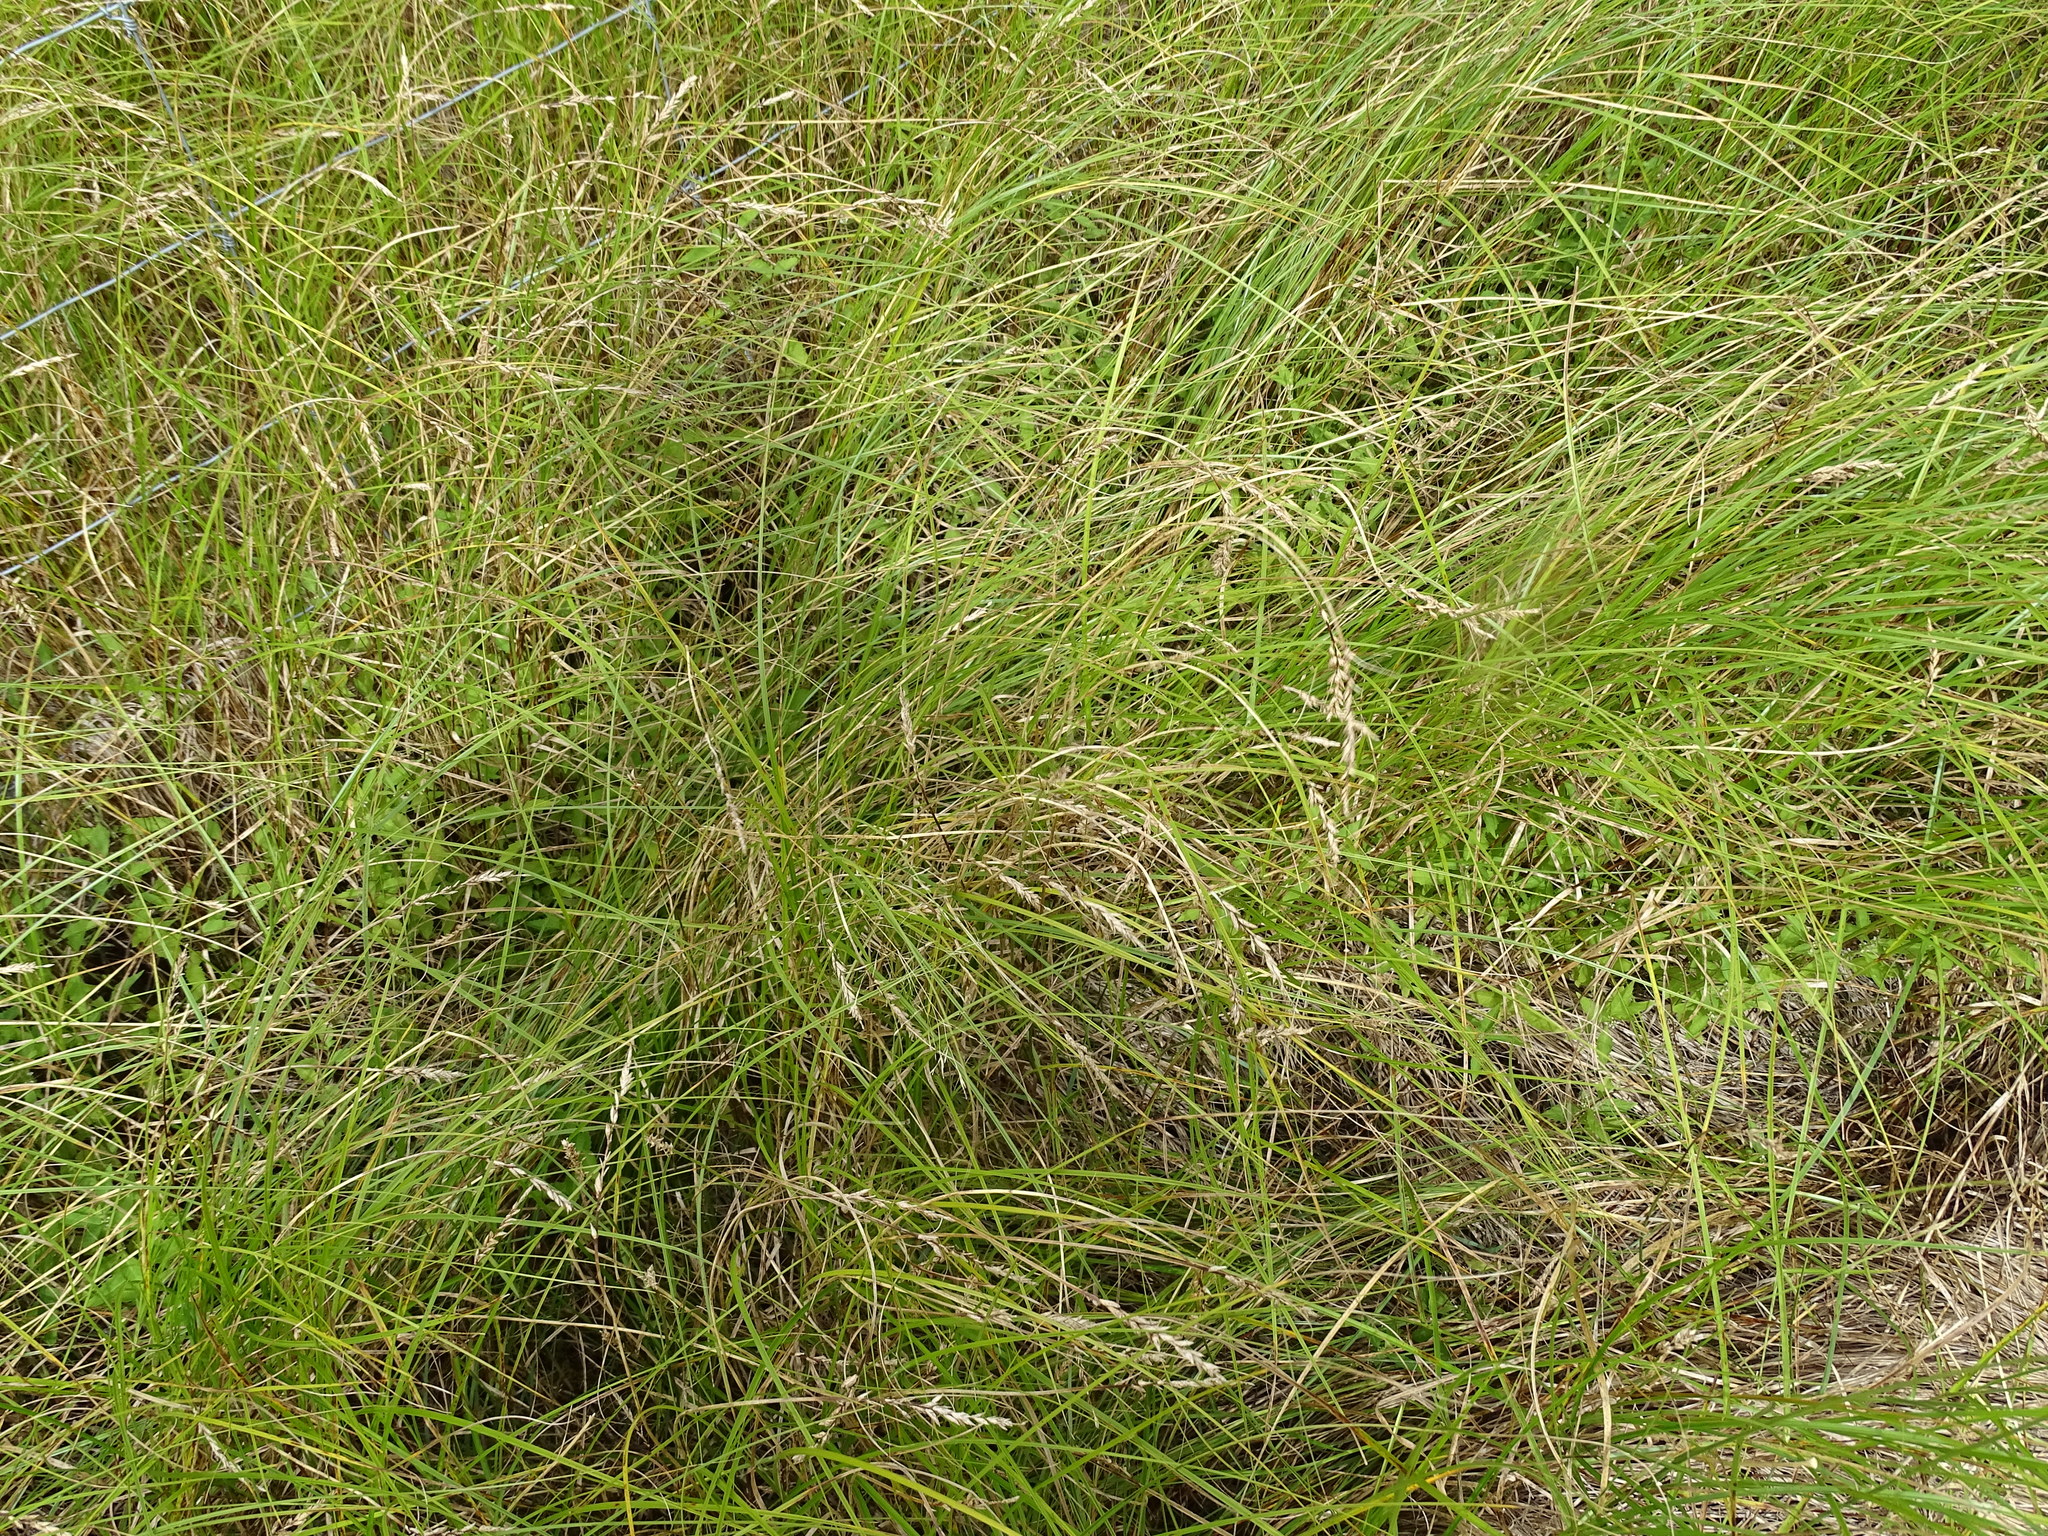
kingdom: Plantae
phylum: Tracheophyta
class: Liliopsida
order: Poales
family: Cyperaceae
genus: Carex
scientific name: Carex prairea
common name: Prairie sedge
